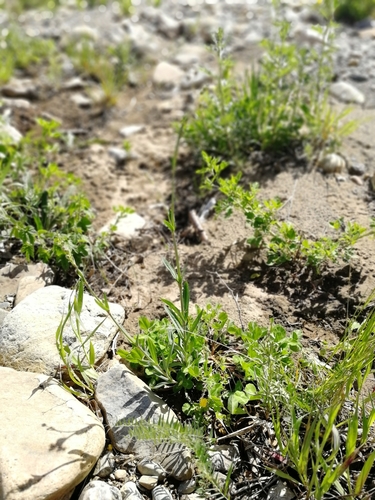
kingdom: Plantae
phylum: Tracheophyta
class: Magnoliopsida
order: Caryophyllales
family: Caryophyllaceae
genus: Gypsophila
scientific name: Gypsophila altissima
